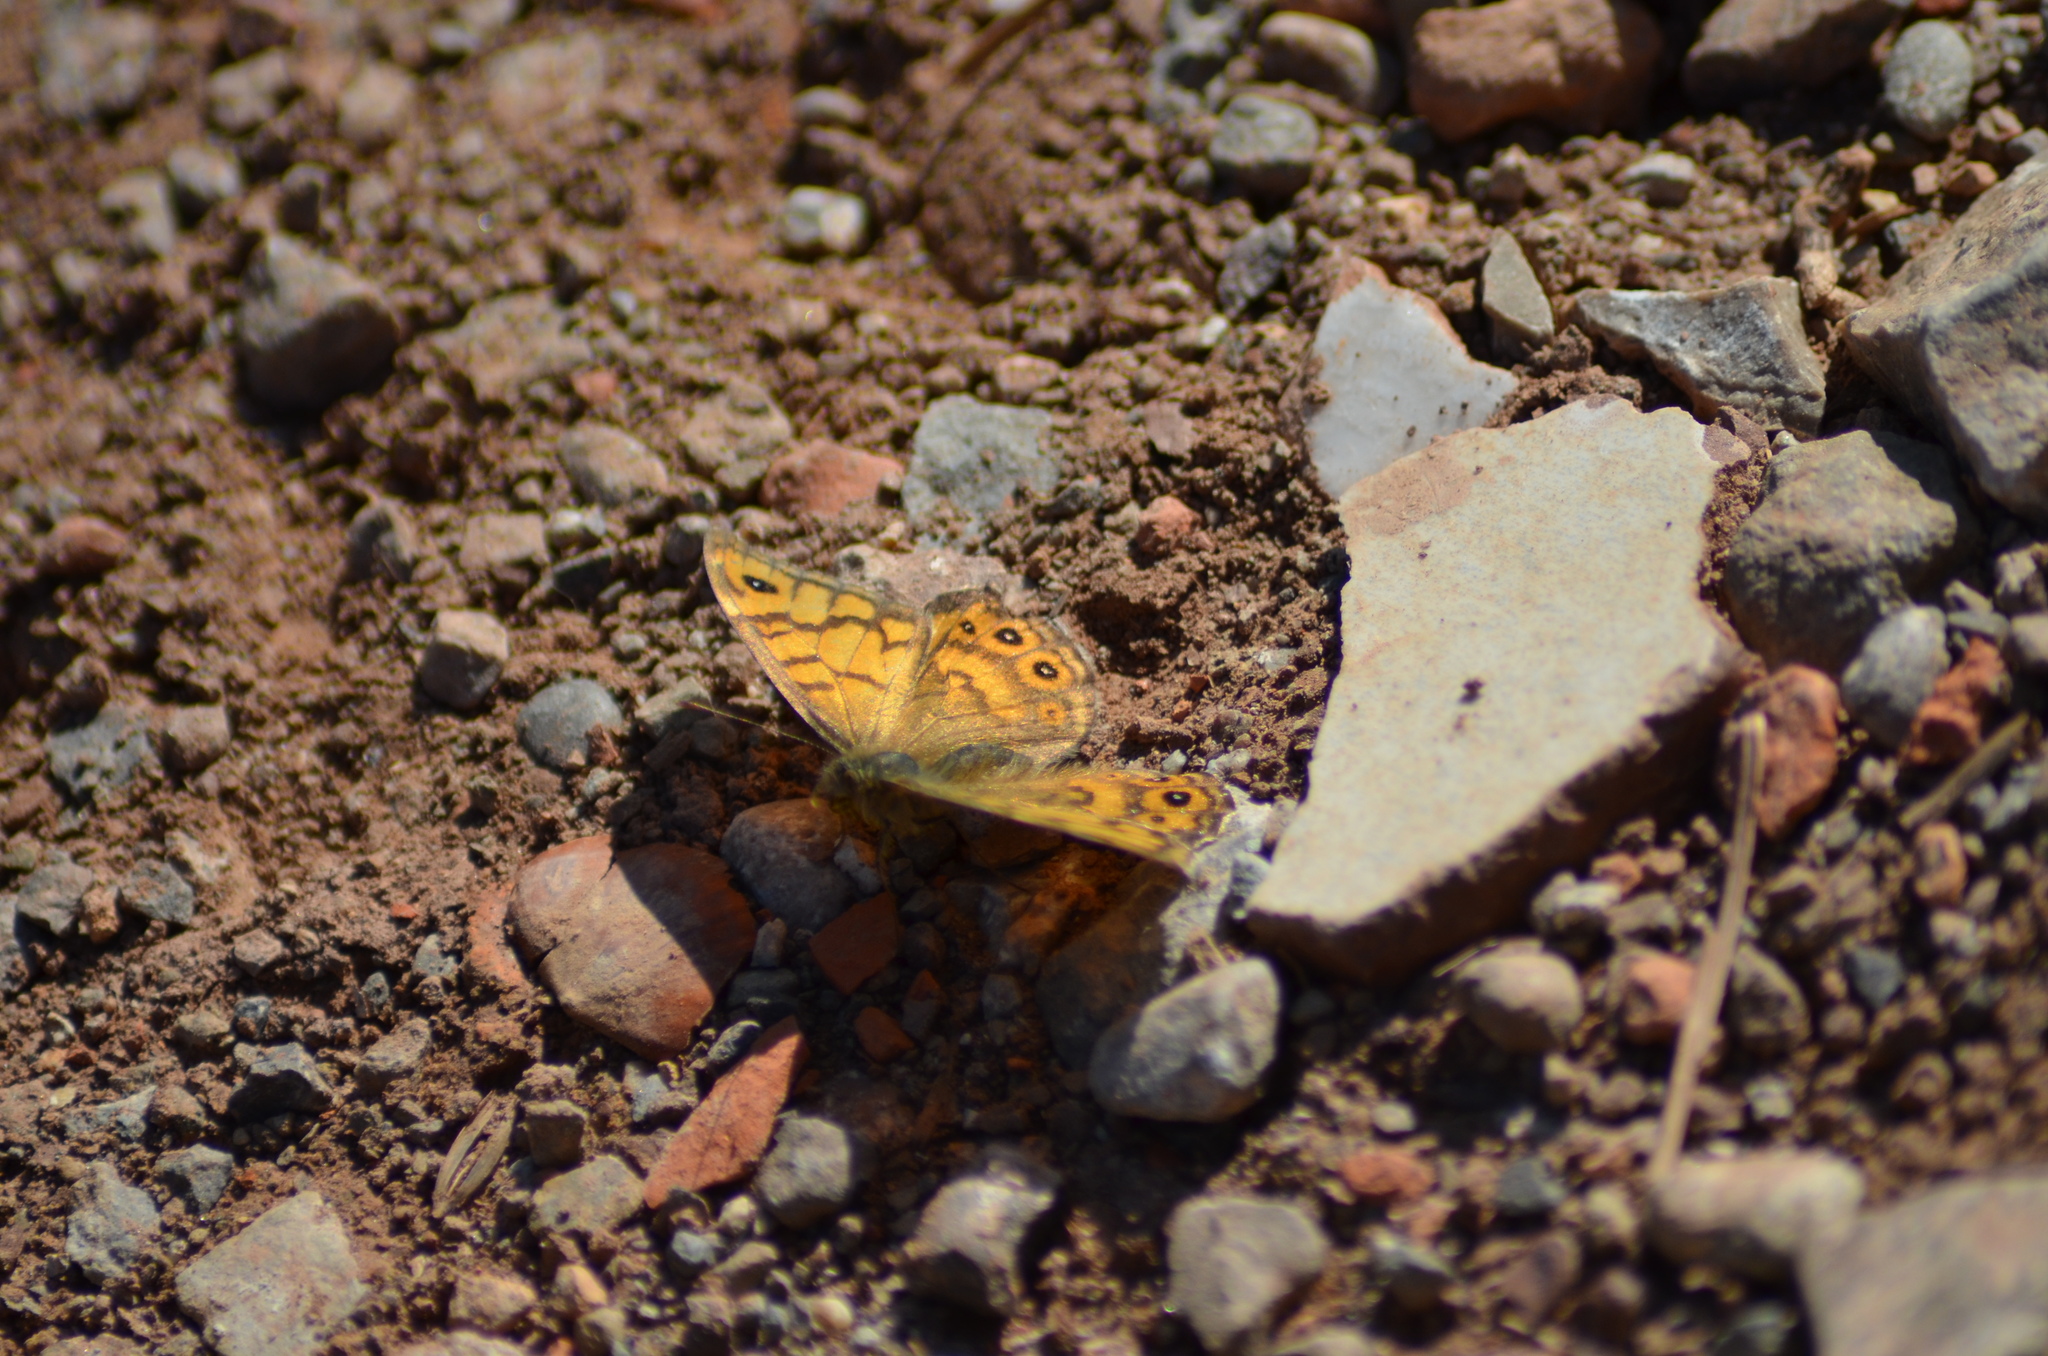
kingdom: Animalia
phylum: Arthropoda
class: Insecta
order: Lepidoptera
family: Nymphalidae
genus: Pararge
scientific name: Pararge Lasiommata megera
